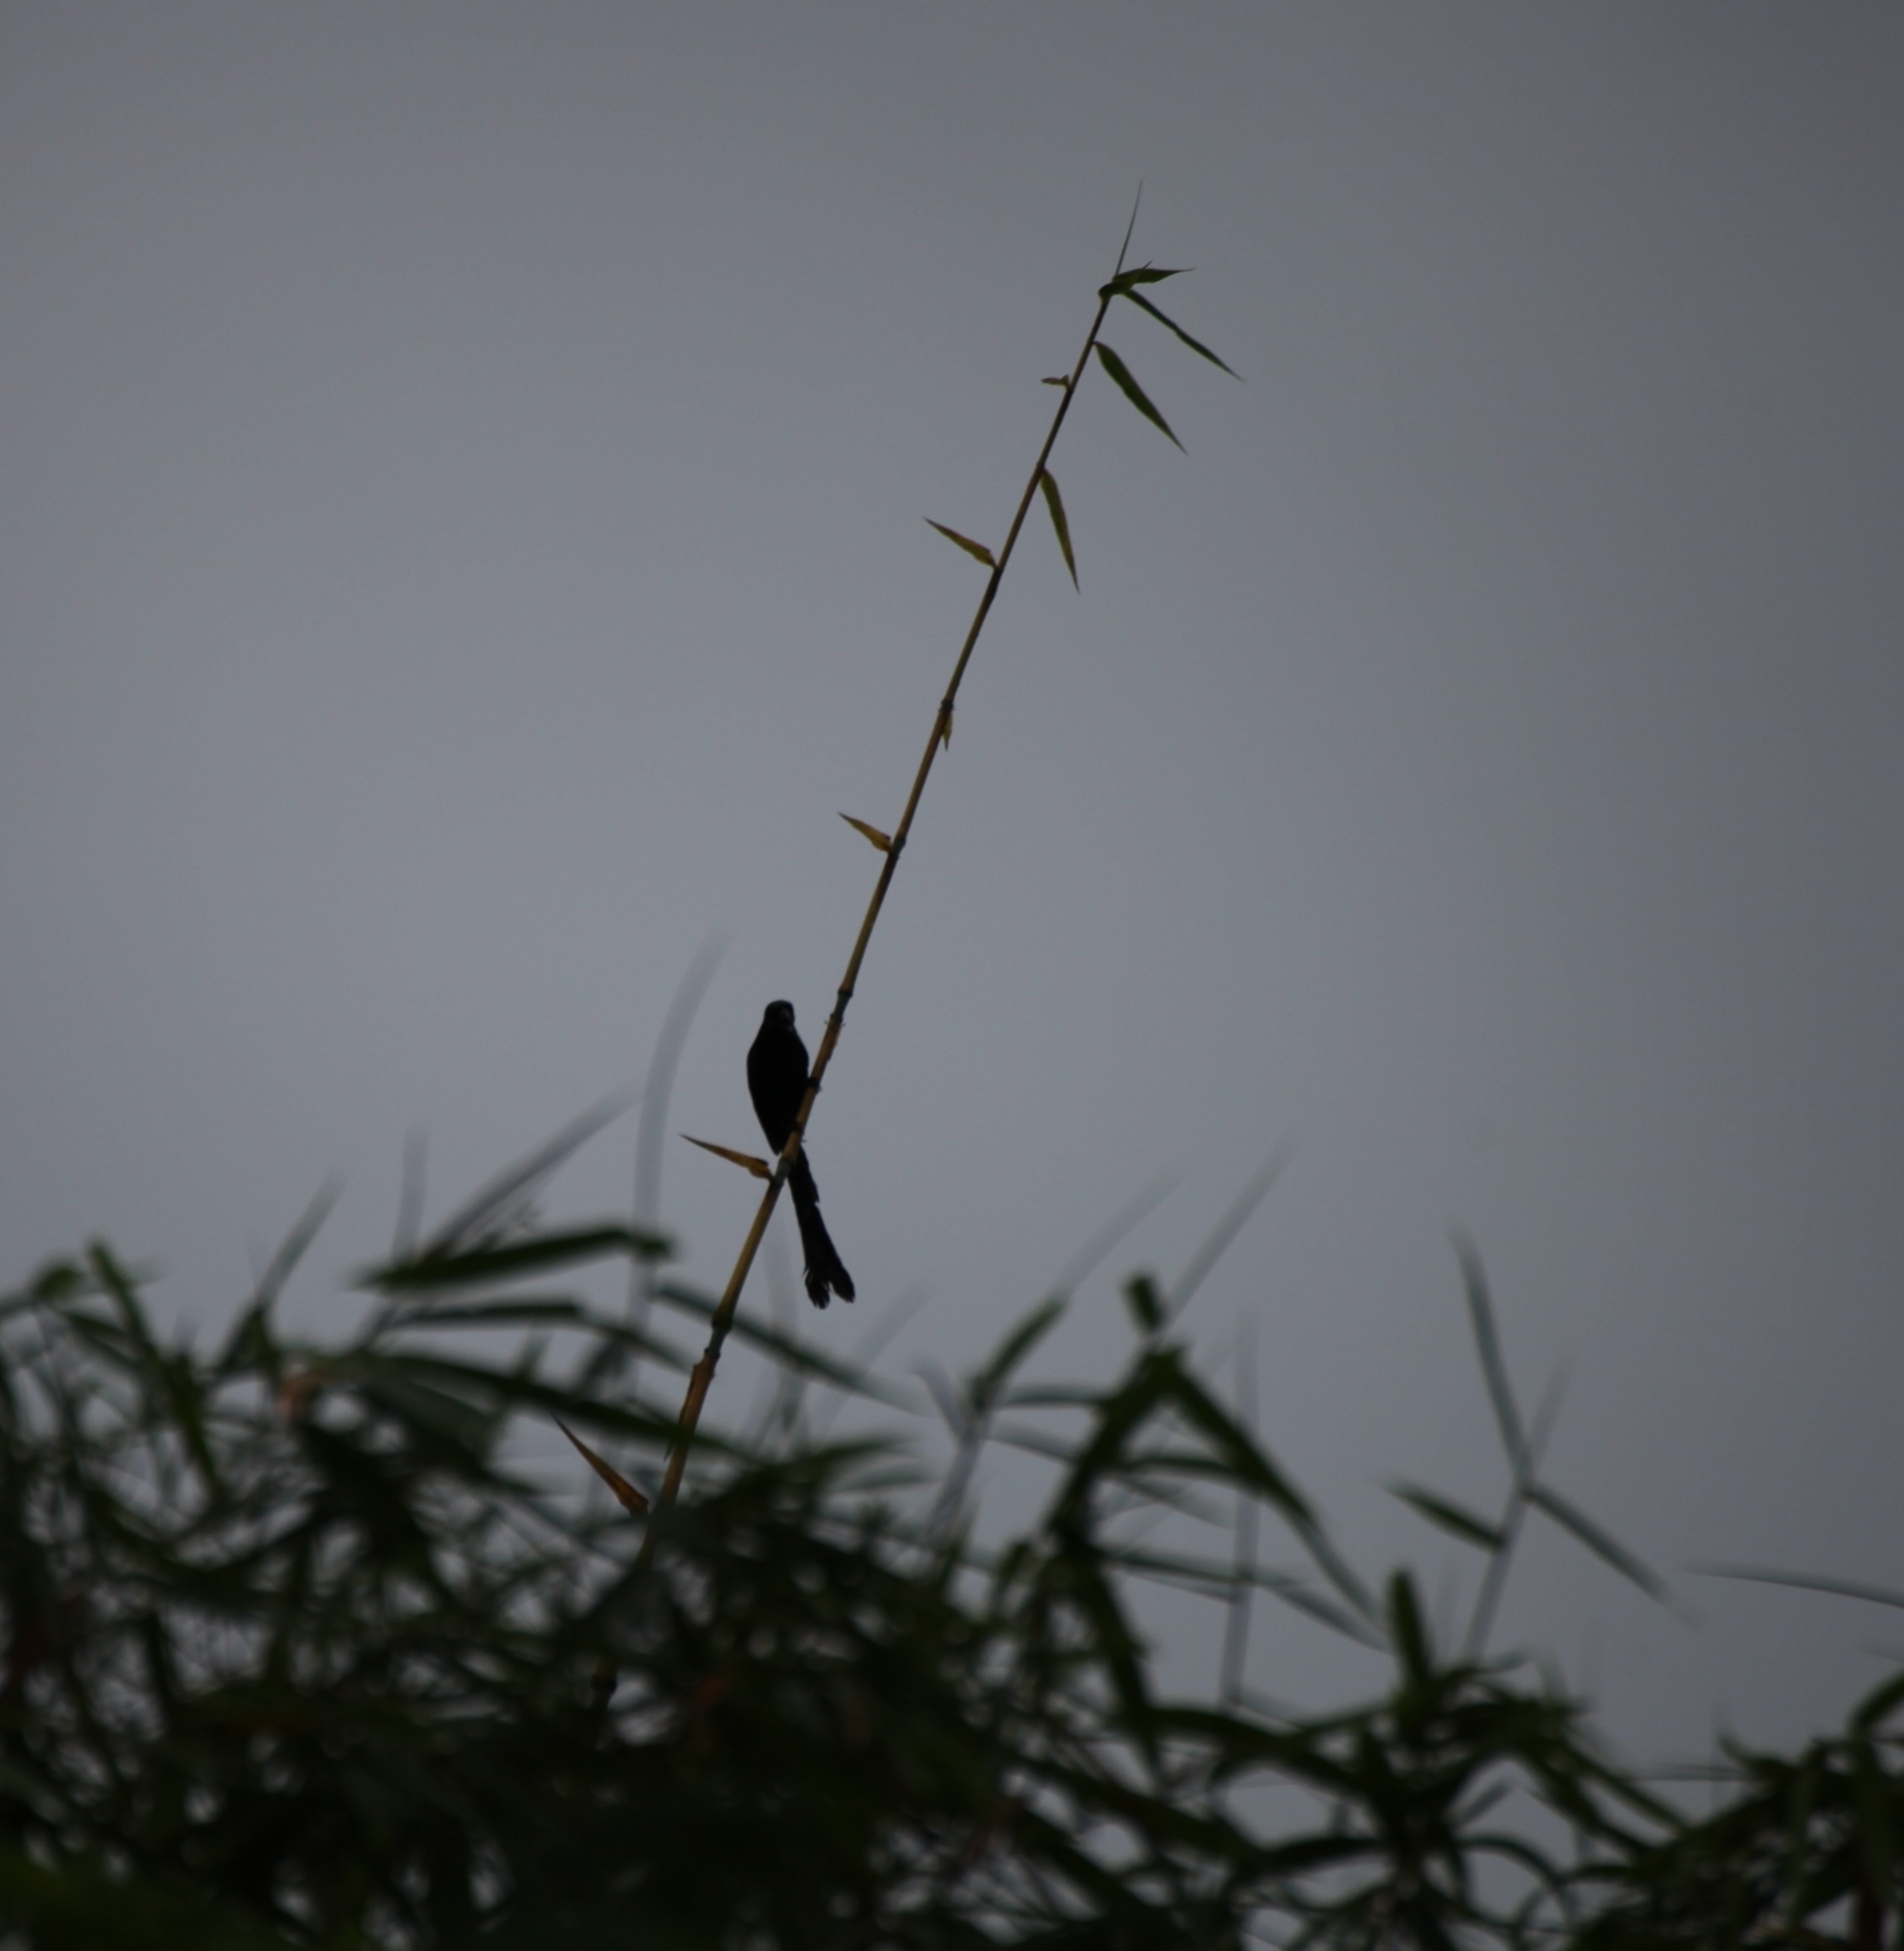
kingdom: Animalia
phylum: Chordata
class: Aves
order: Passeriformes
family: Corvidae
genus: Crypsirina
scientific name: Crypsirina temia
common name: Racket-tailed treepie
